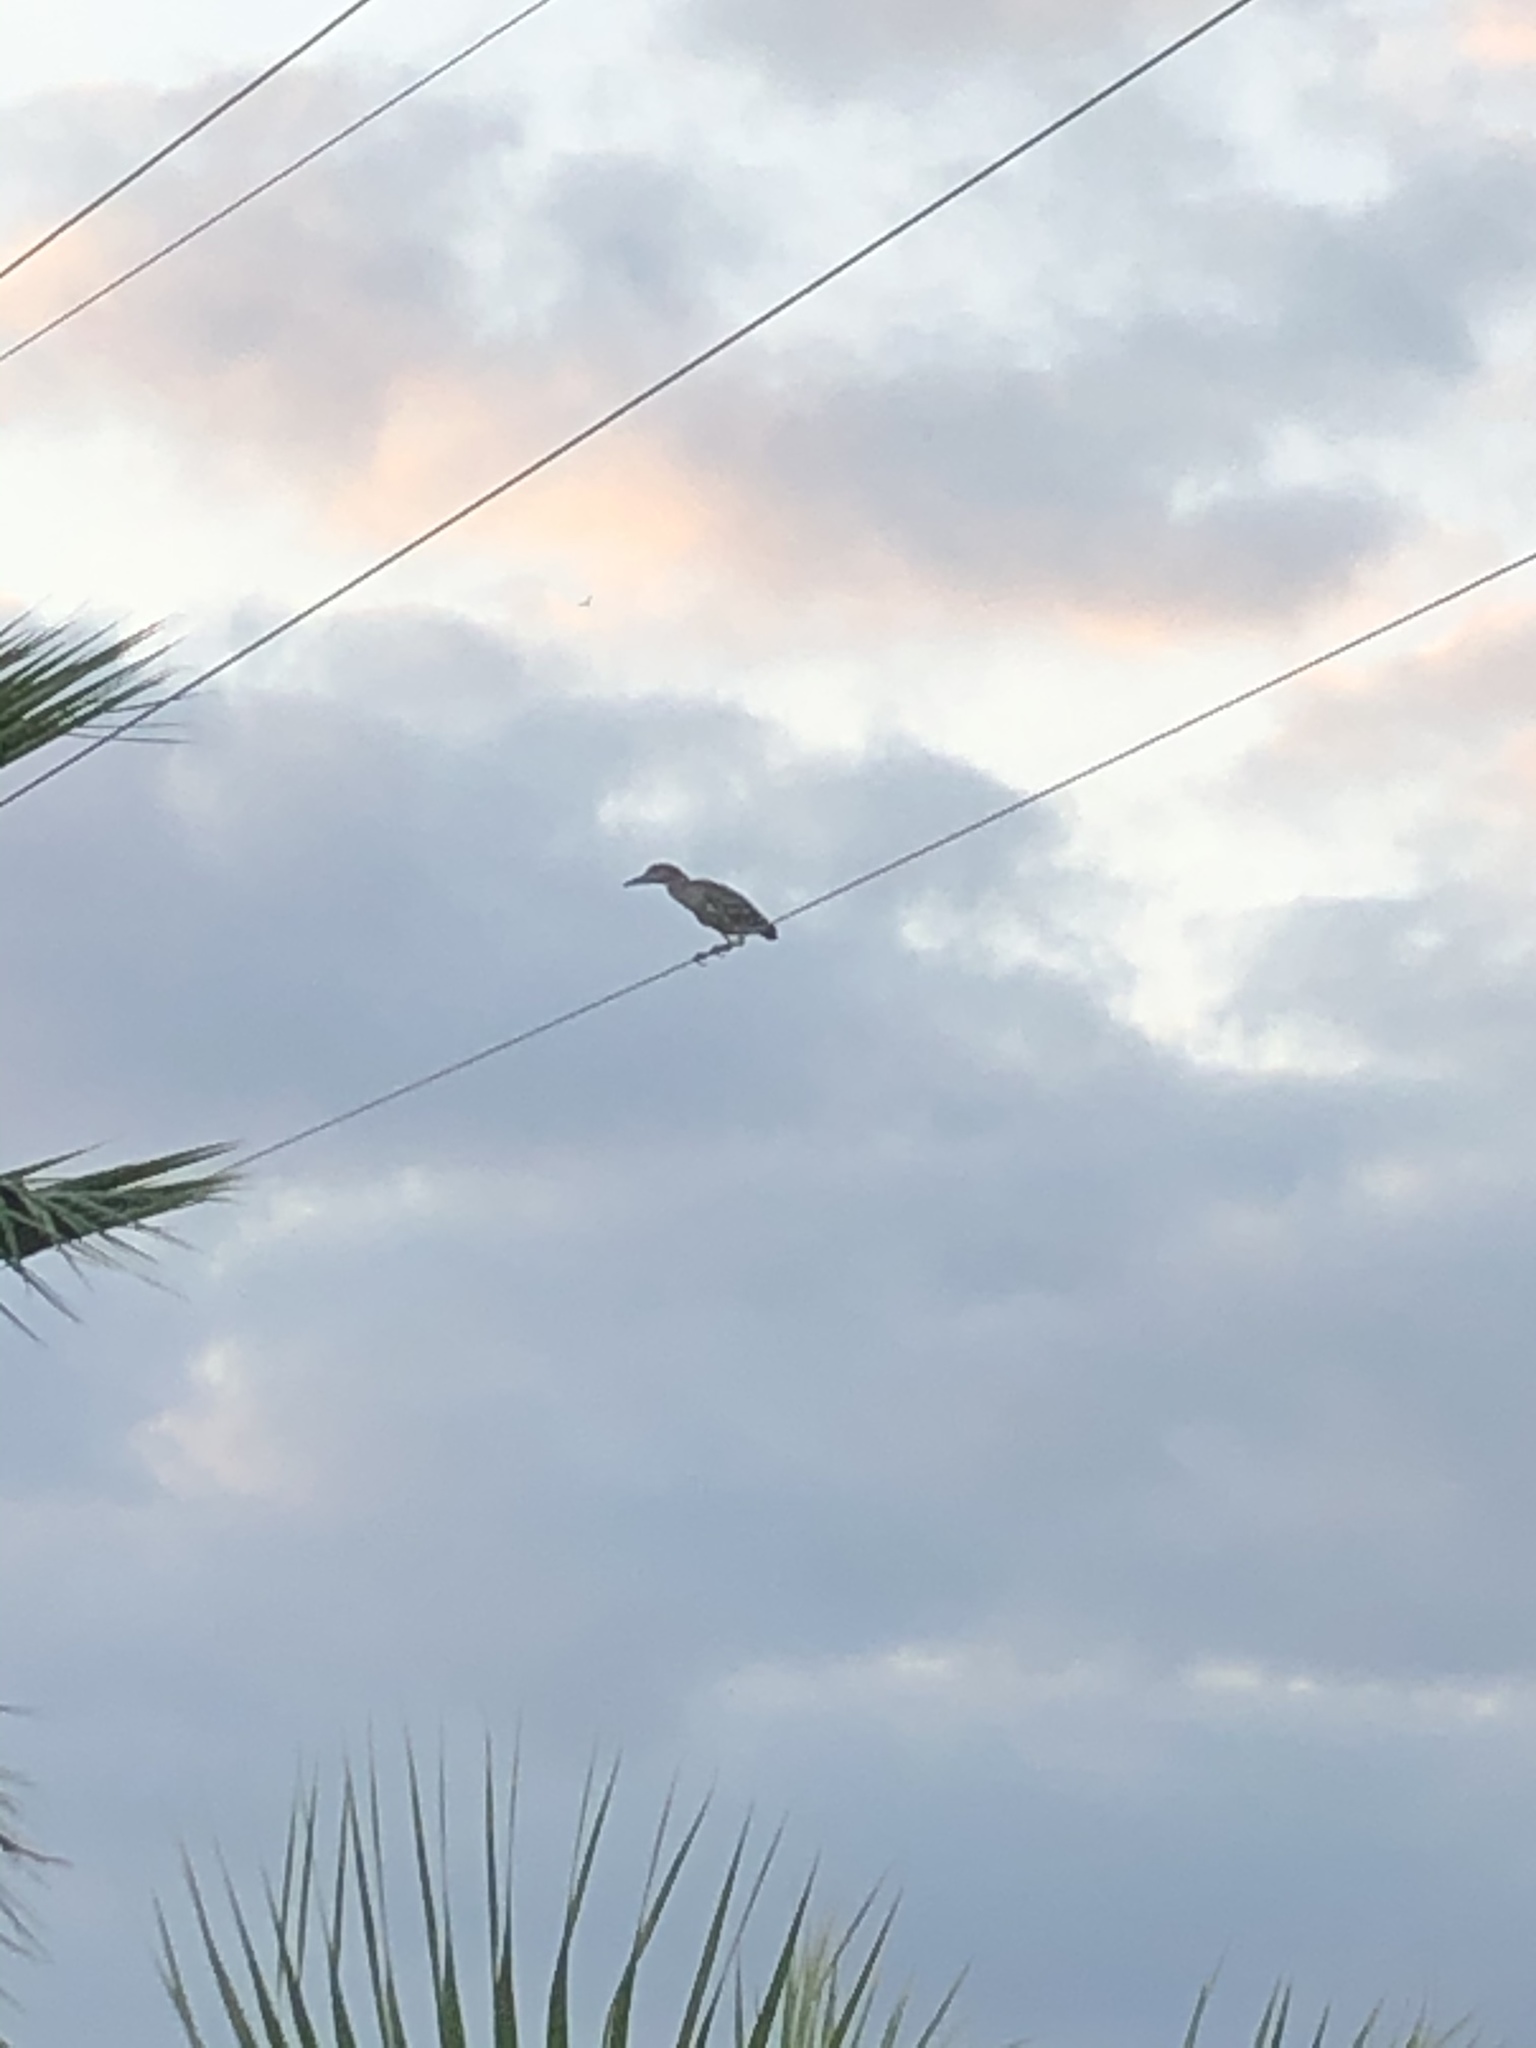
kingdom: Animalia
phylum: Chordata
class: Aves
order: Pelecaniformes
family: Ardeidae
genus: Nycticorax
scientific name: Nycticorax nycticorax
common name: Black-crowned night heron
